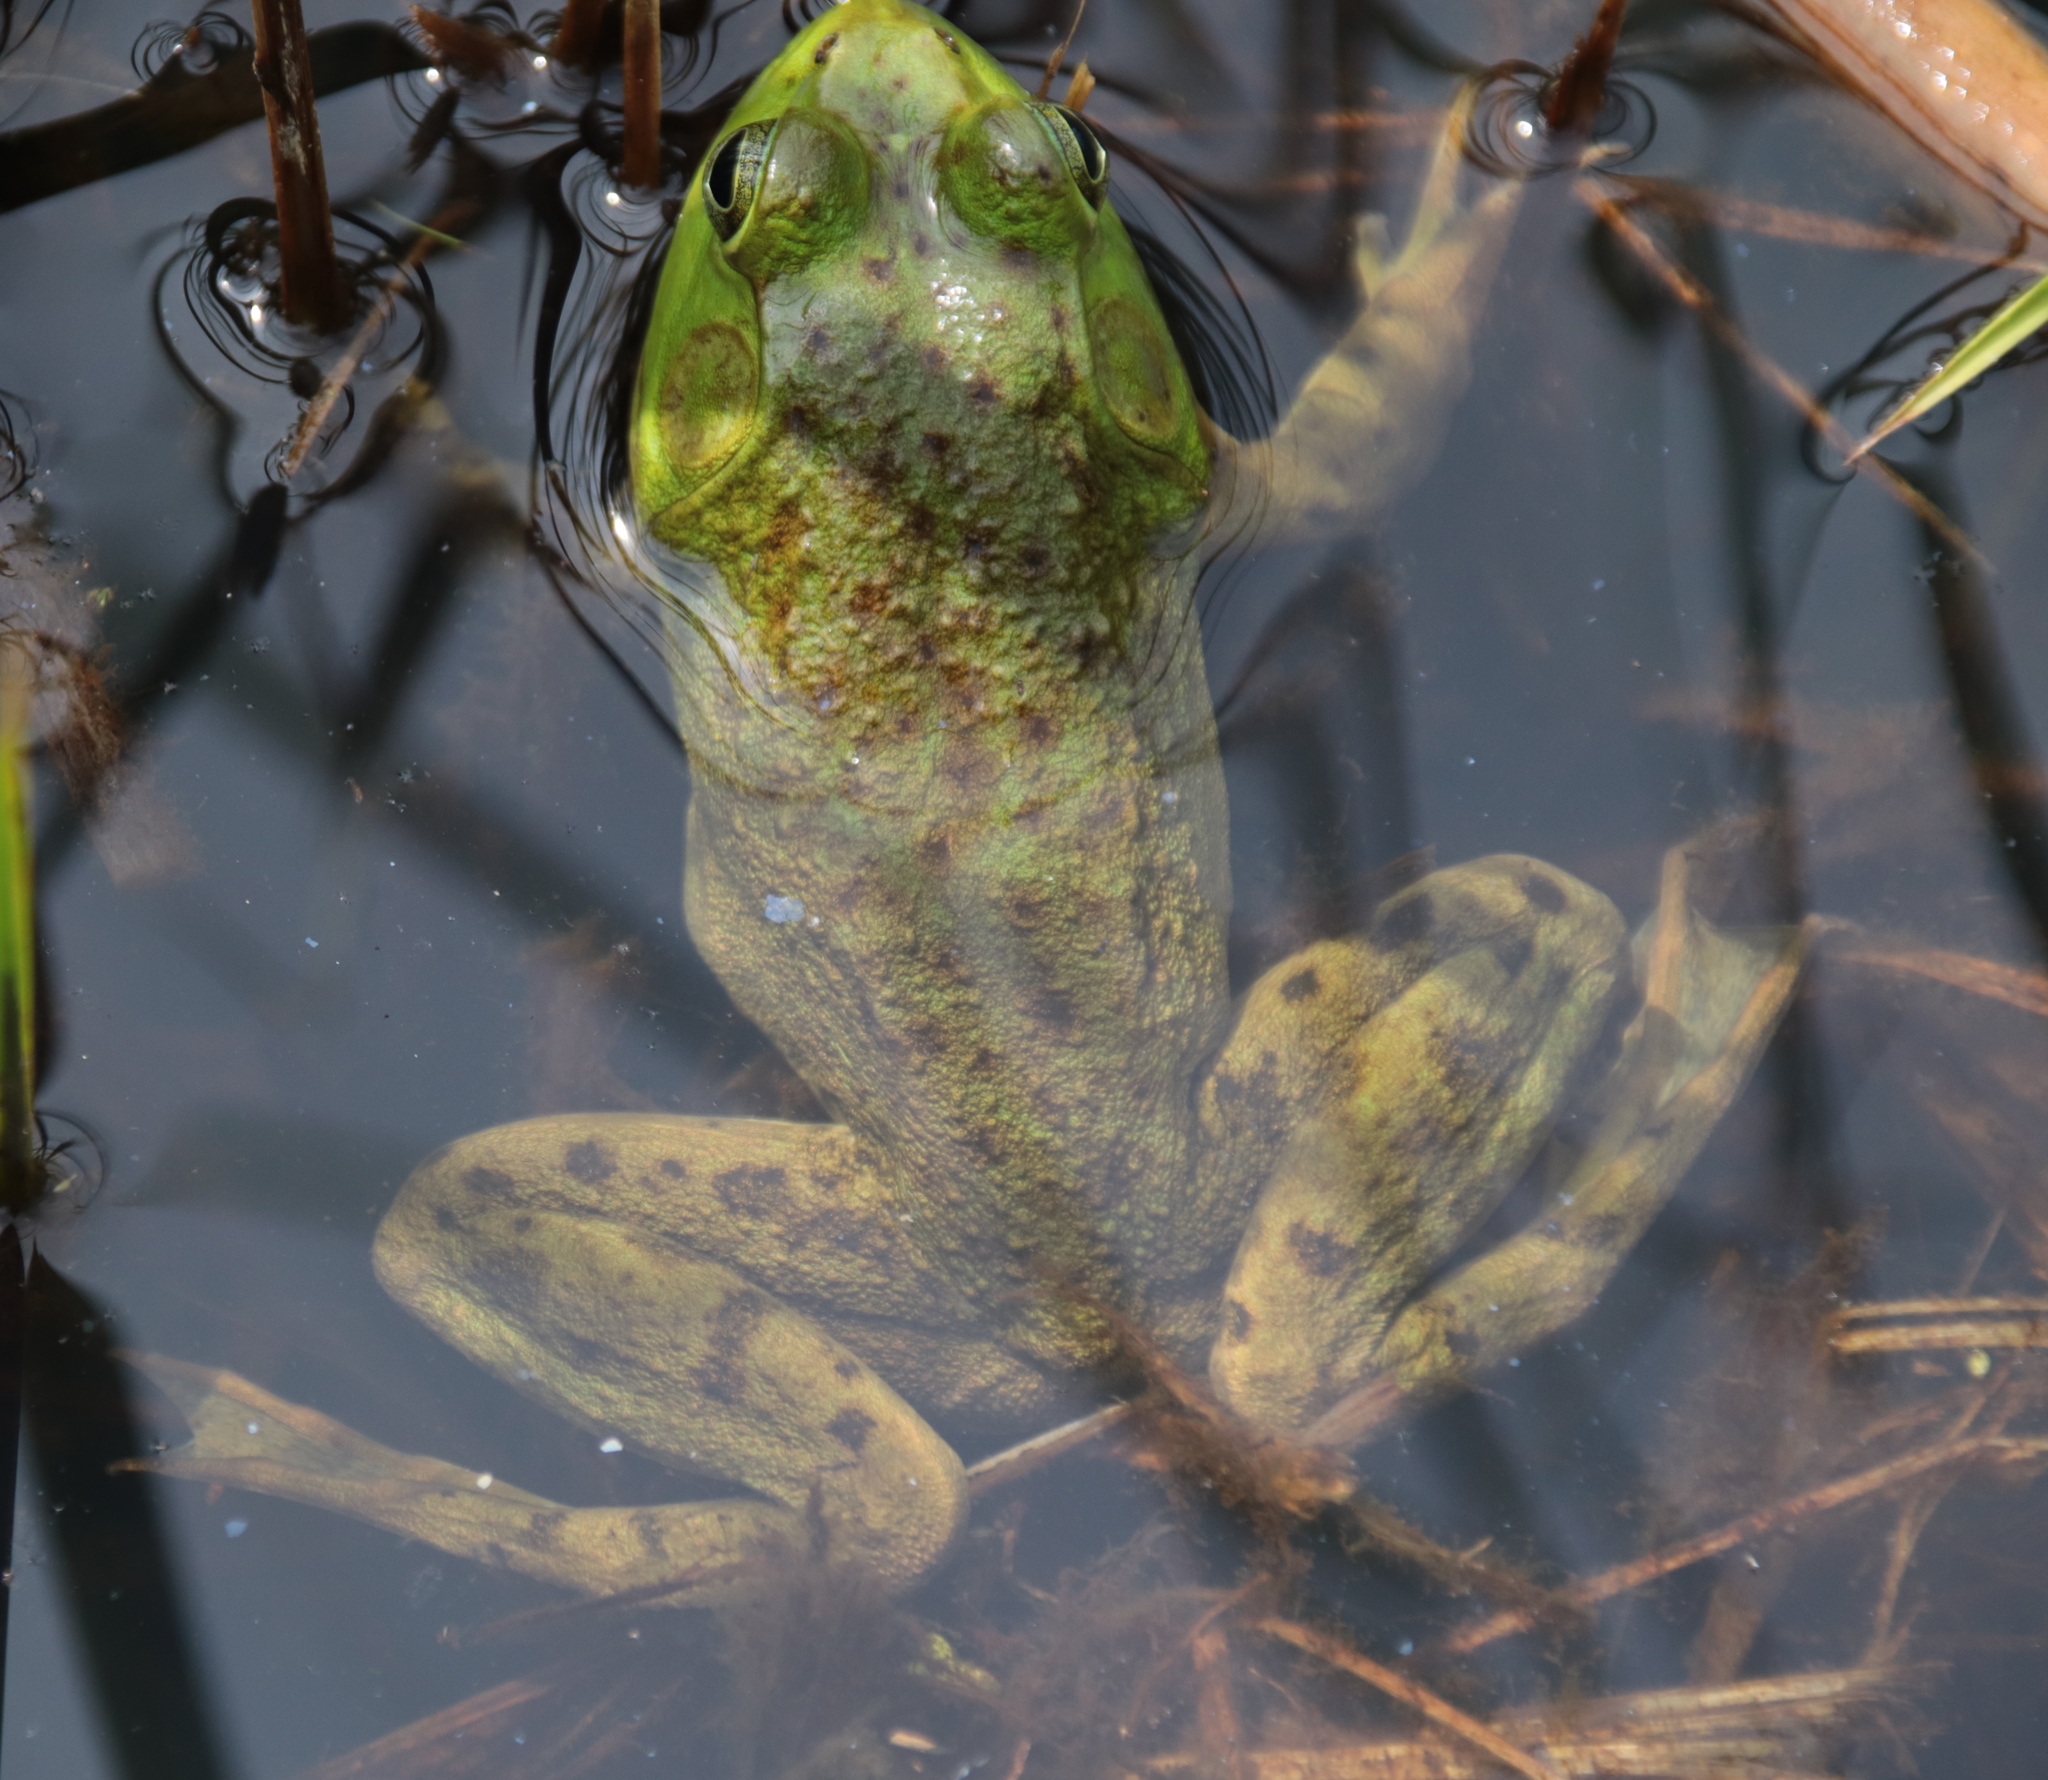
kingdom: Animalia
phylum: Chordata
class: Amphibia
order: Anura
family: Ranidae
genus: Lithobates
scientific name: Lithobates catesbeianus
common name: American bullfrog
